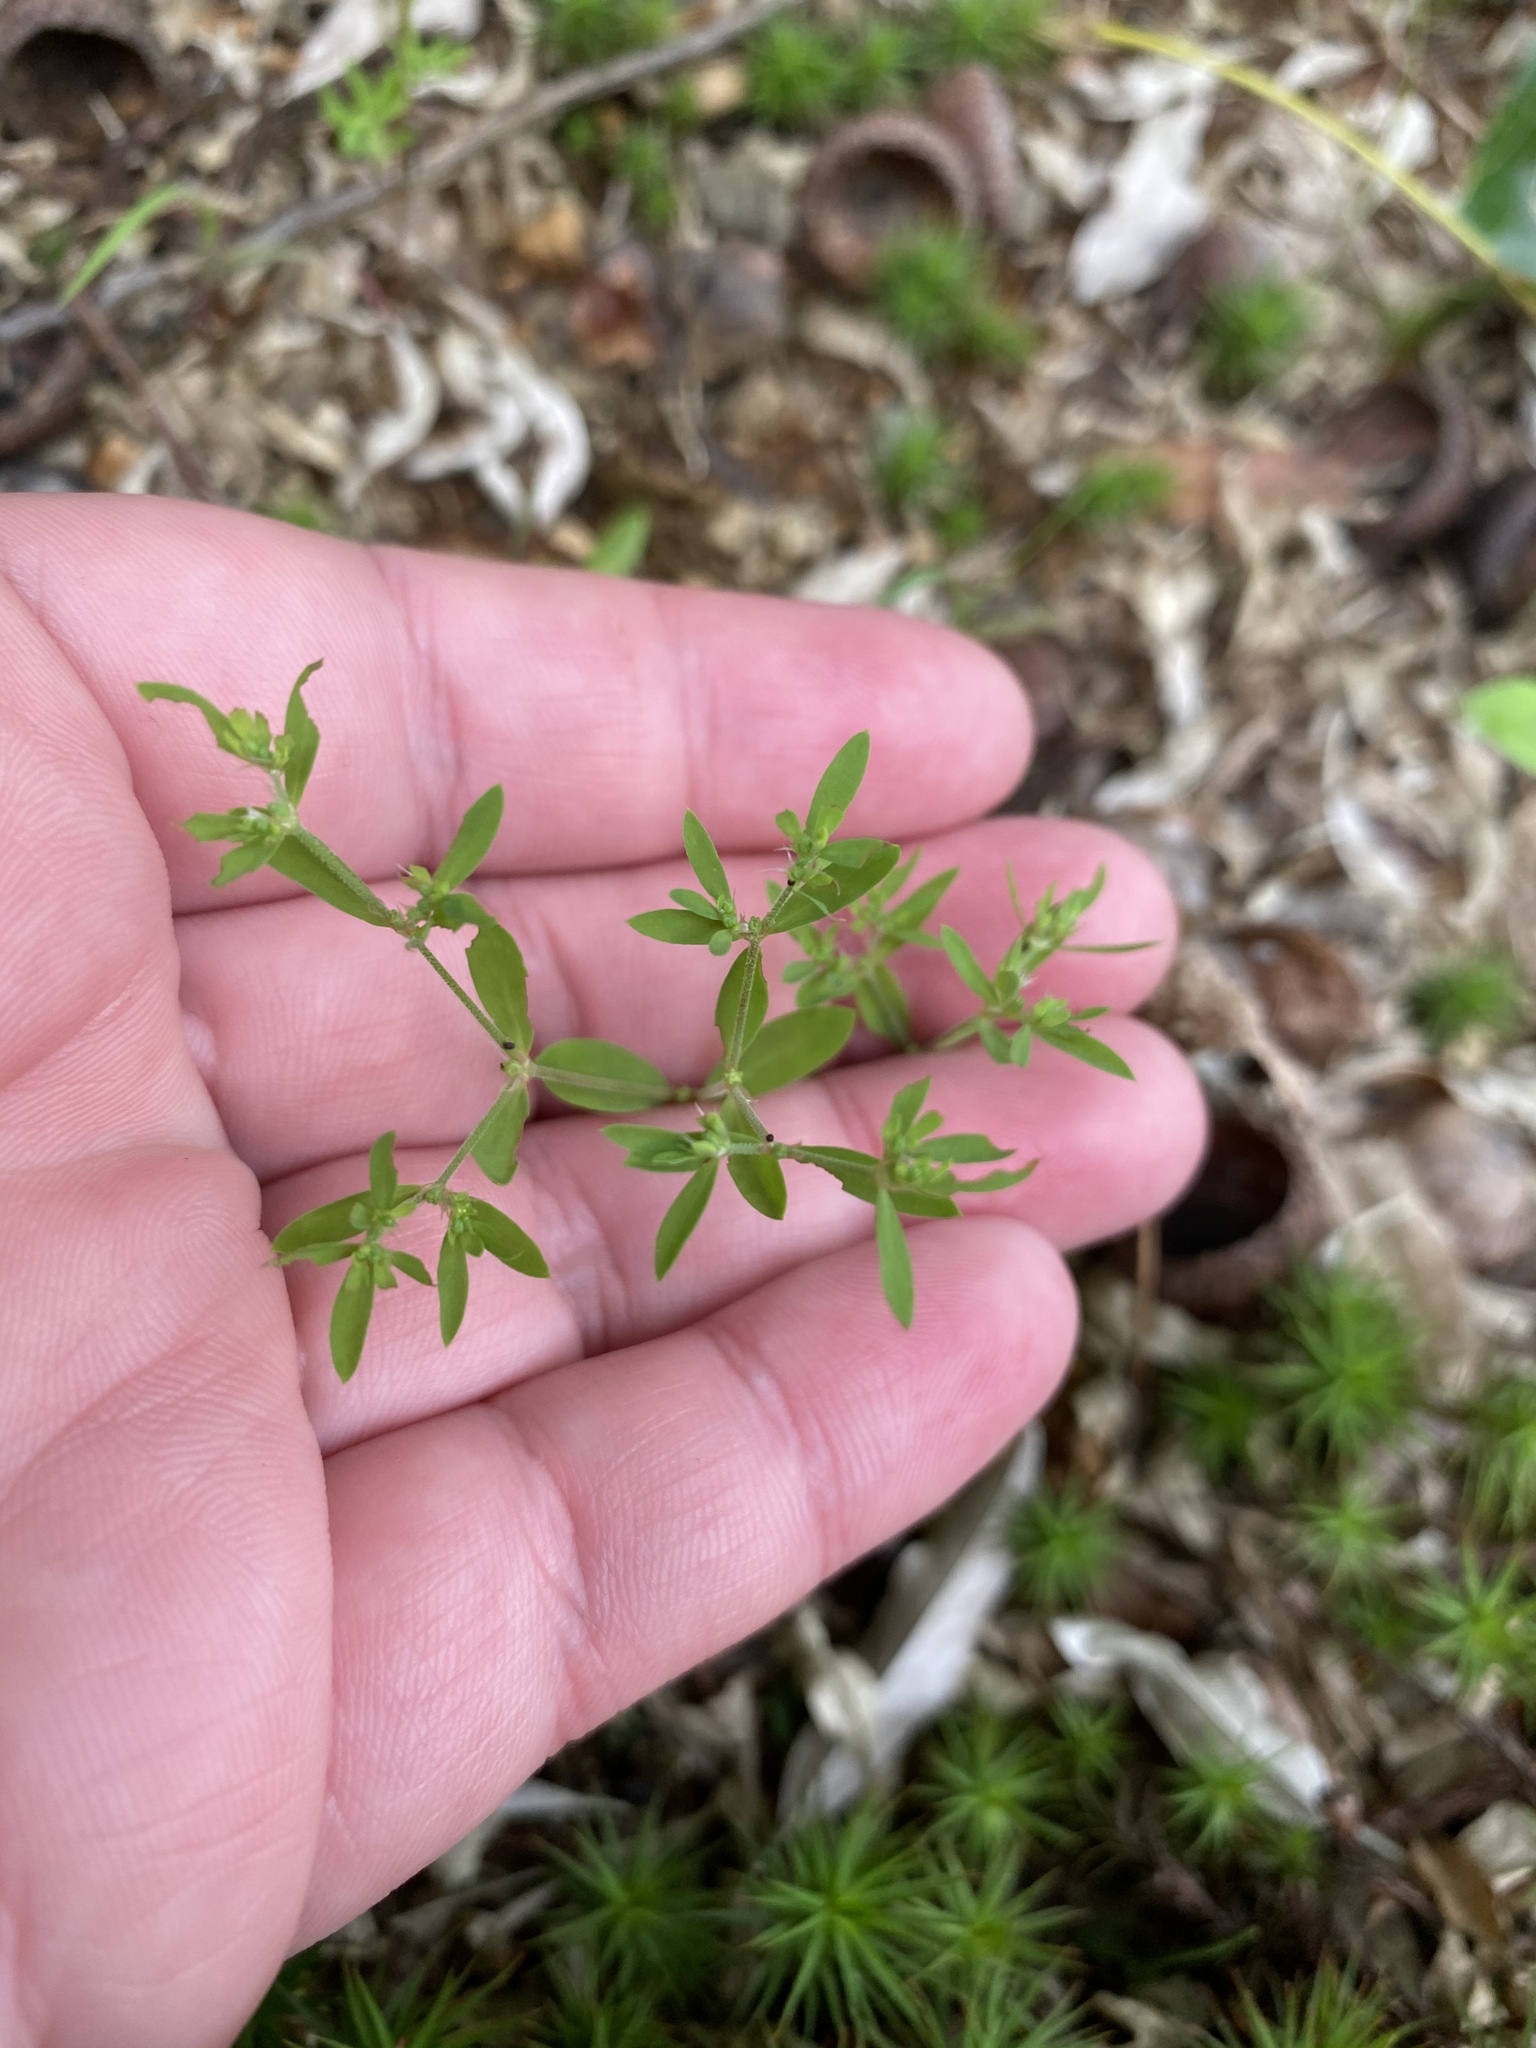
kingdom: Plantae
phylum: Tracheophyta
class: Magnoliopsida
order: Caryophyllales
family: Caryophyllaceae
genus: Paronychia
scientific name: Paronychia fastigiata
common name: Branching forked whitlow-wort
